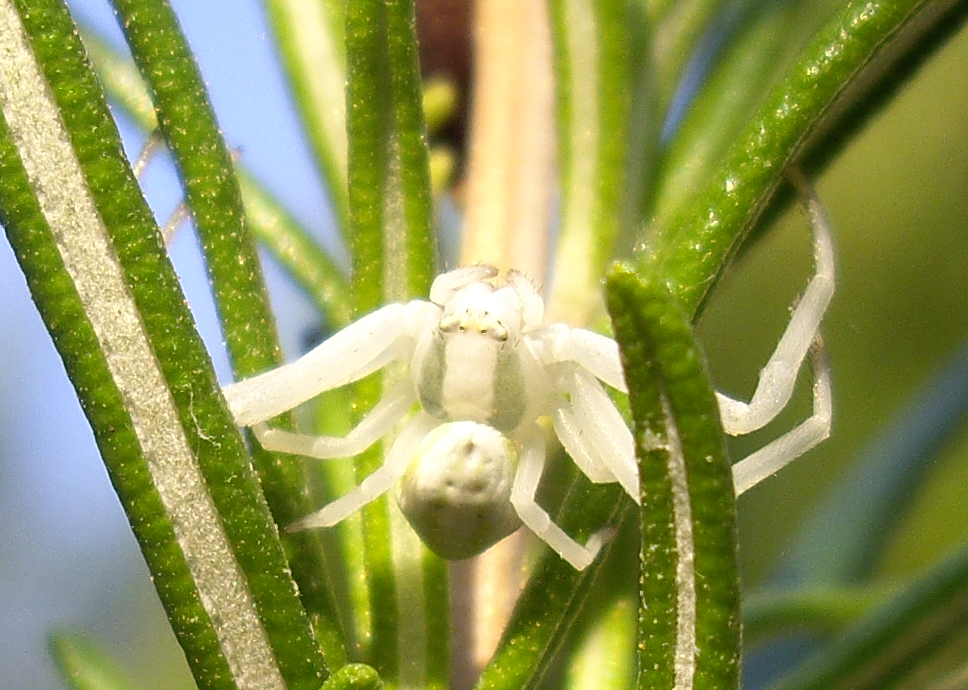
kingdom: Animalia
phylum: Arthropoda
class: Arachnida
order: Araneae
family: Thomisidae
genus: Misumena
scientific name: Misumena vatia
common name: Goldenrod crab spider
